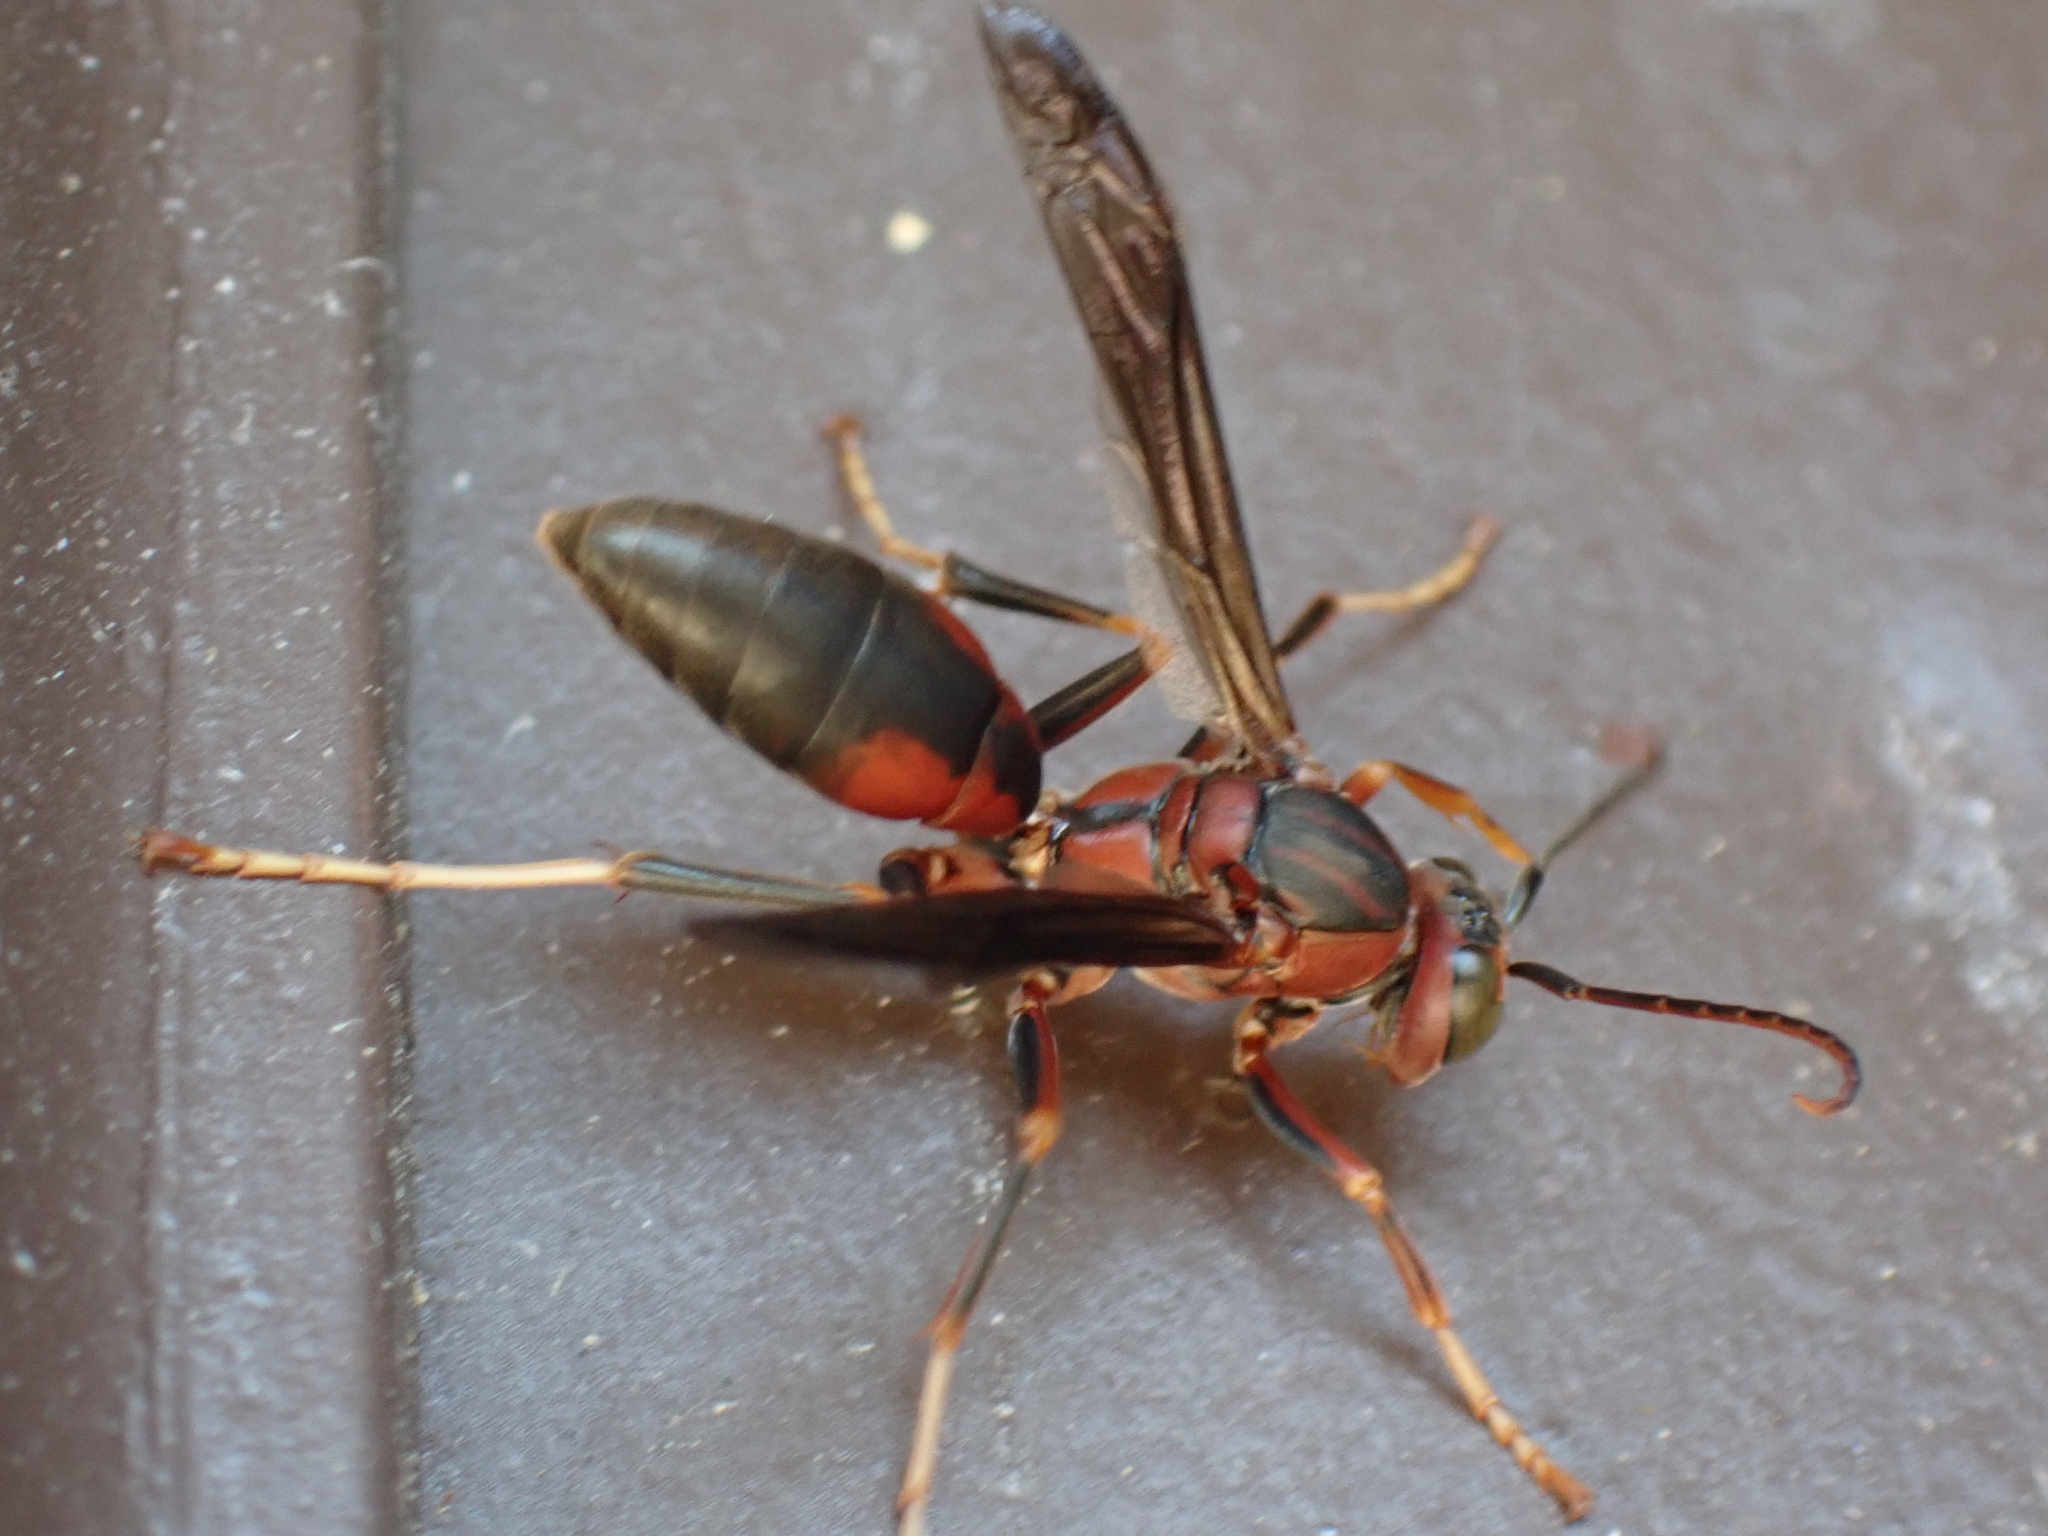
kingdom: Animalia
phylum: Arthropoda
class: Insecta
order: Hymenoptera
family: Eumenidae
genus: Polistes
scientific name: Polistes metricus
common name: Metric paper wasp
